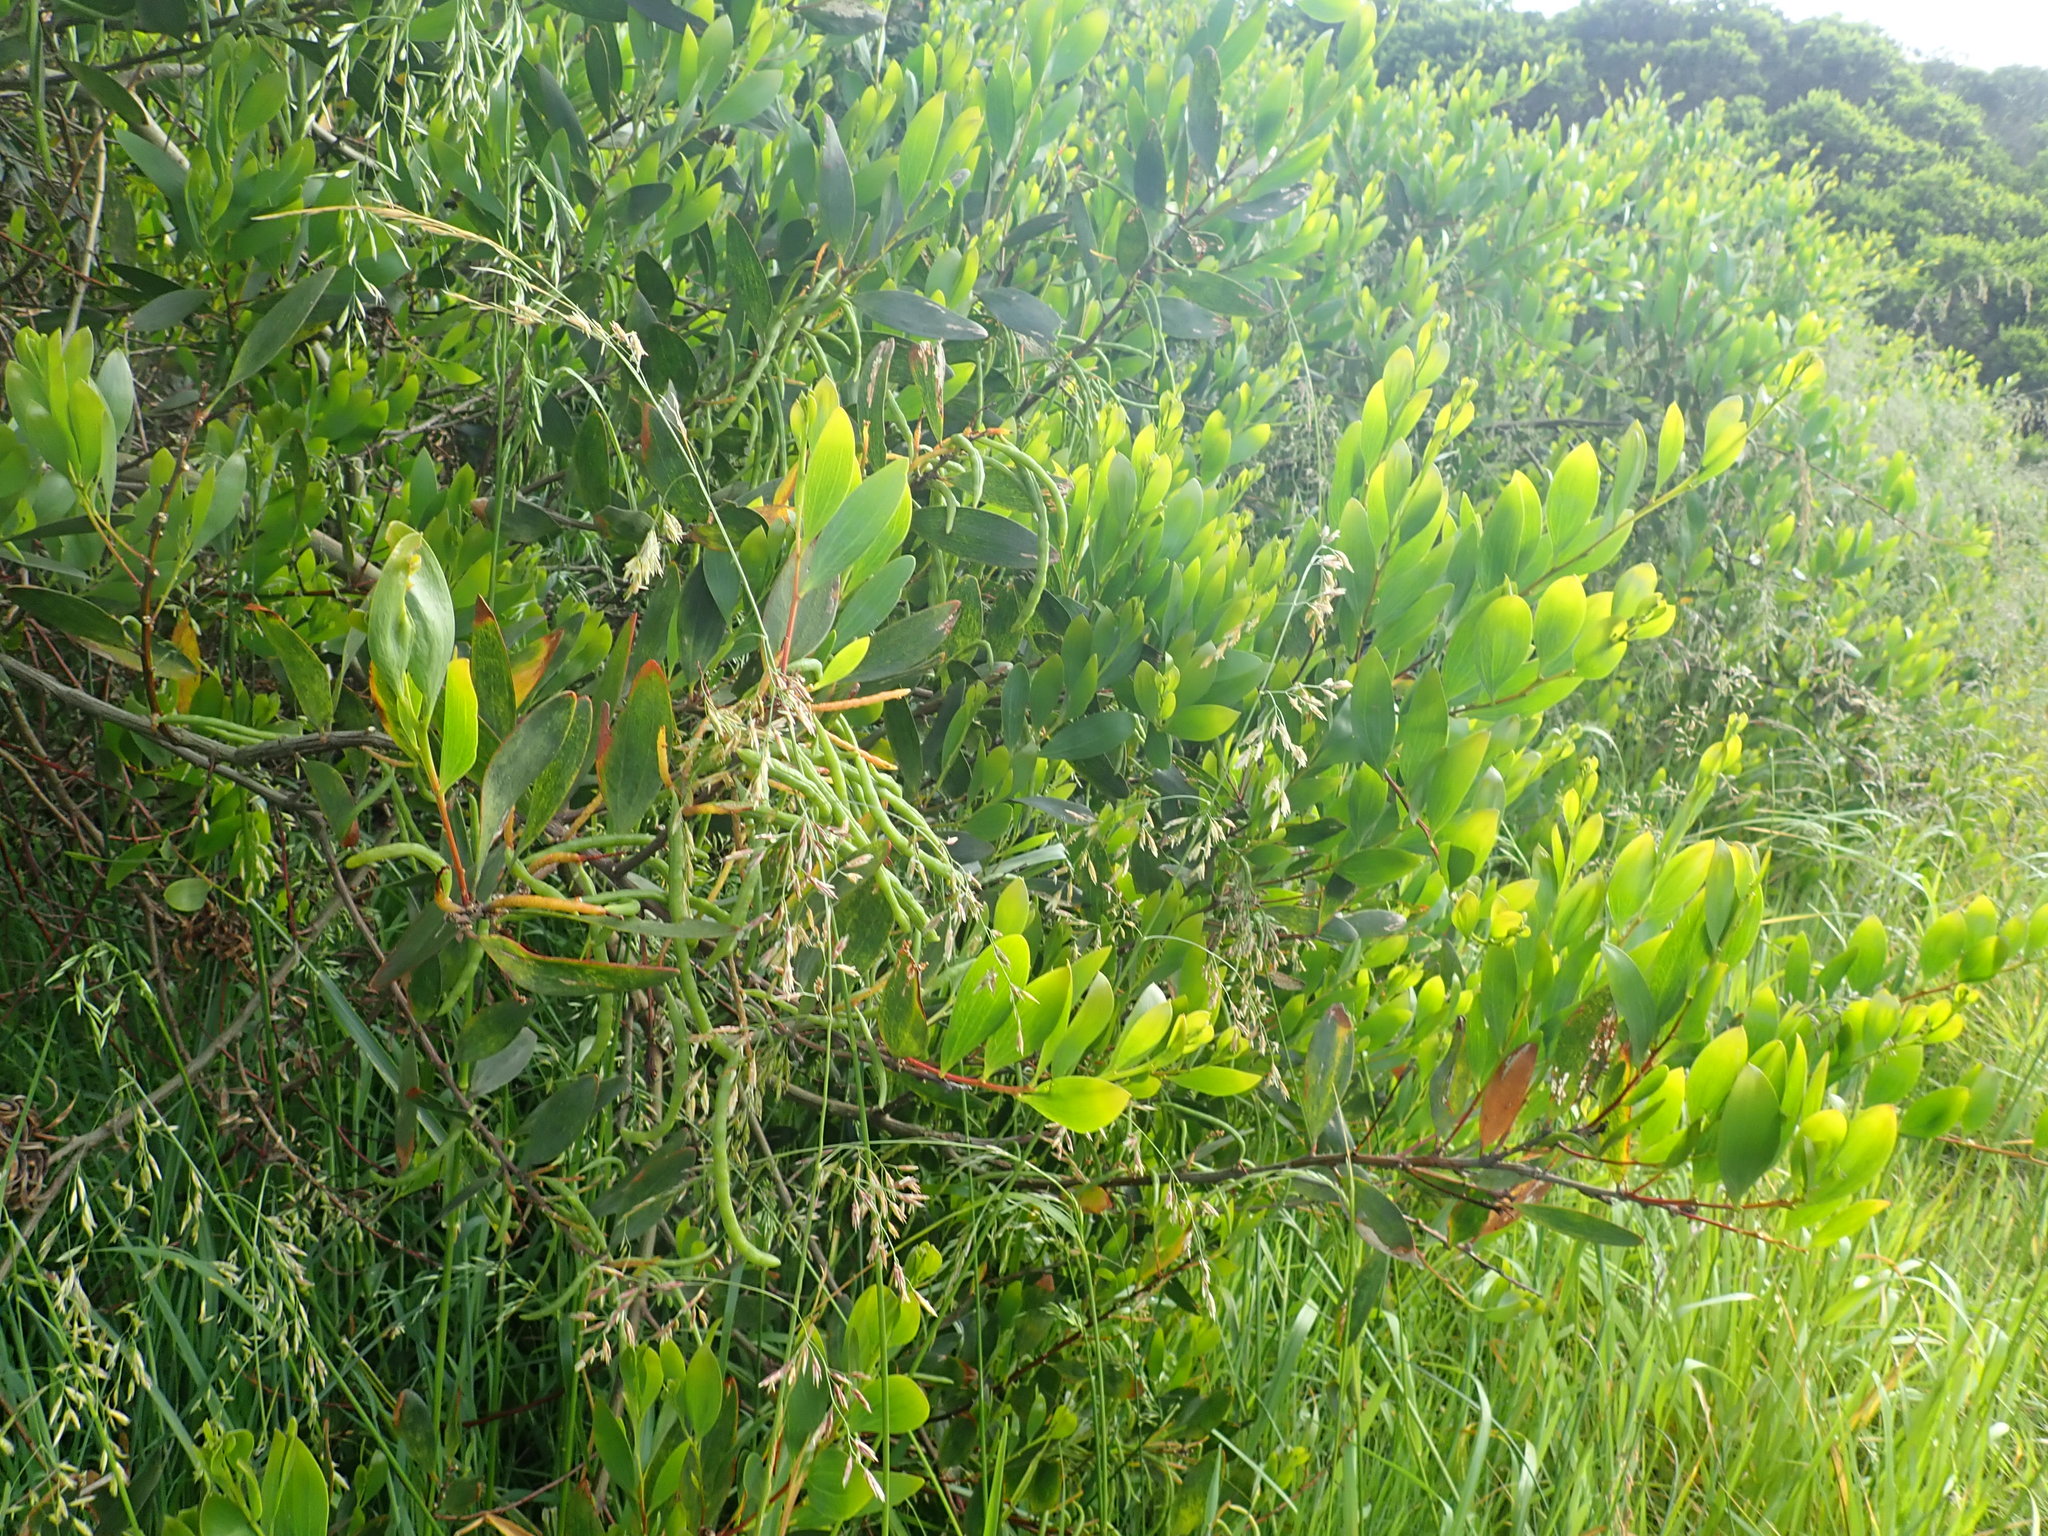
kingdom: Plantae
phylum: Tracheophyta
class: Magnoliopsida
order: Fabales
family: Fabaceae
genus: Acacia
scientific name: Acacia longifolia
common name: Sydney golden wattle
